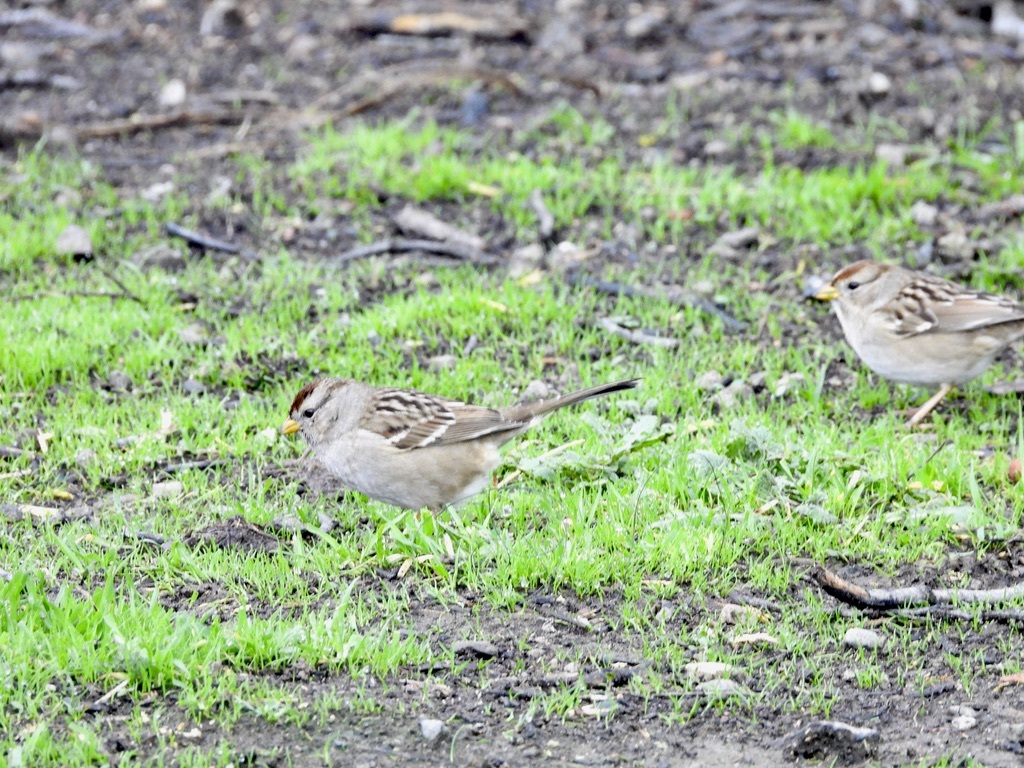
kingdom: Animalia
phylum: Chordata
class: Aves
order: Passeriformes
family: Passerellidae
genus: Zonotrichia
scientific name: Zonotrichia leucophrys
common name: White-crowned sparrow
